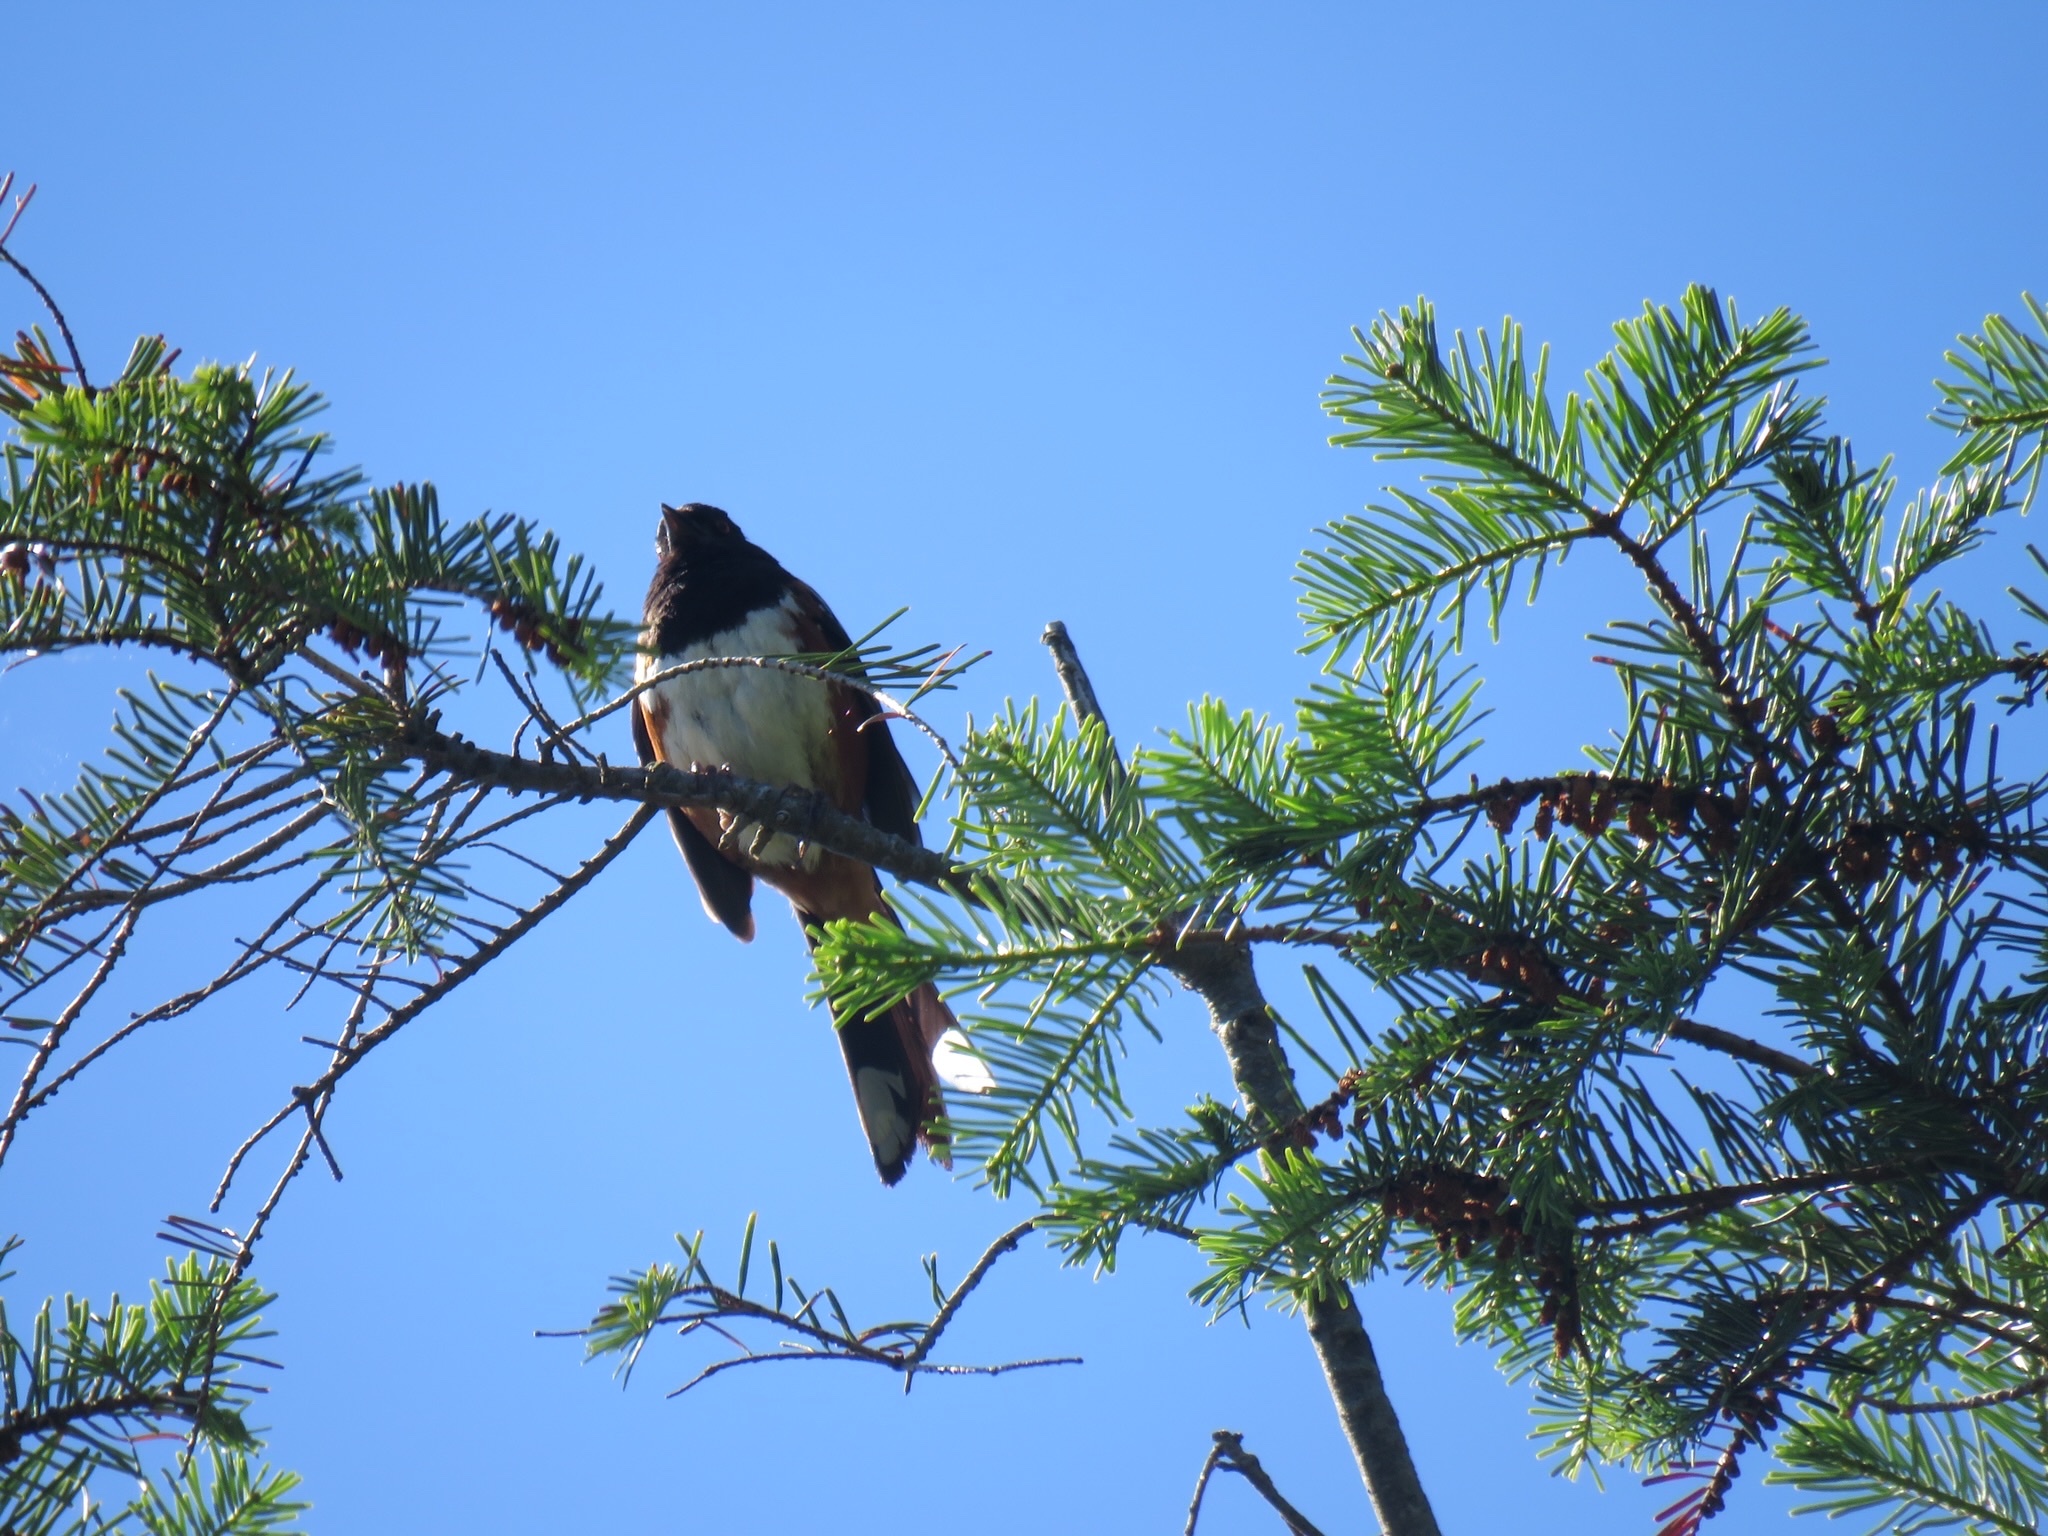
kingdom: Animalia
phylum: Chordata
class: Aves
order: Passeriformes
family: Passerellidae
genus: Pipilo
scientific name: Pipilo maculatus
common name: Spotted towhee
